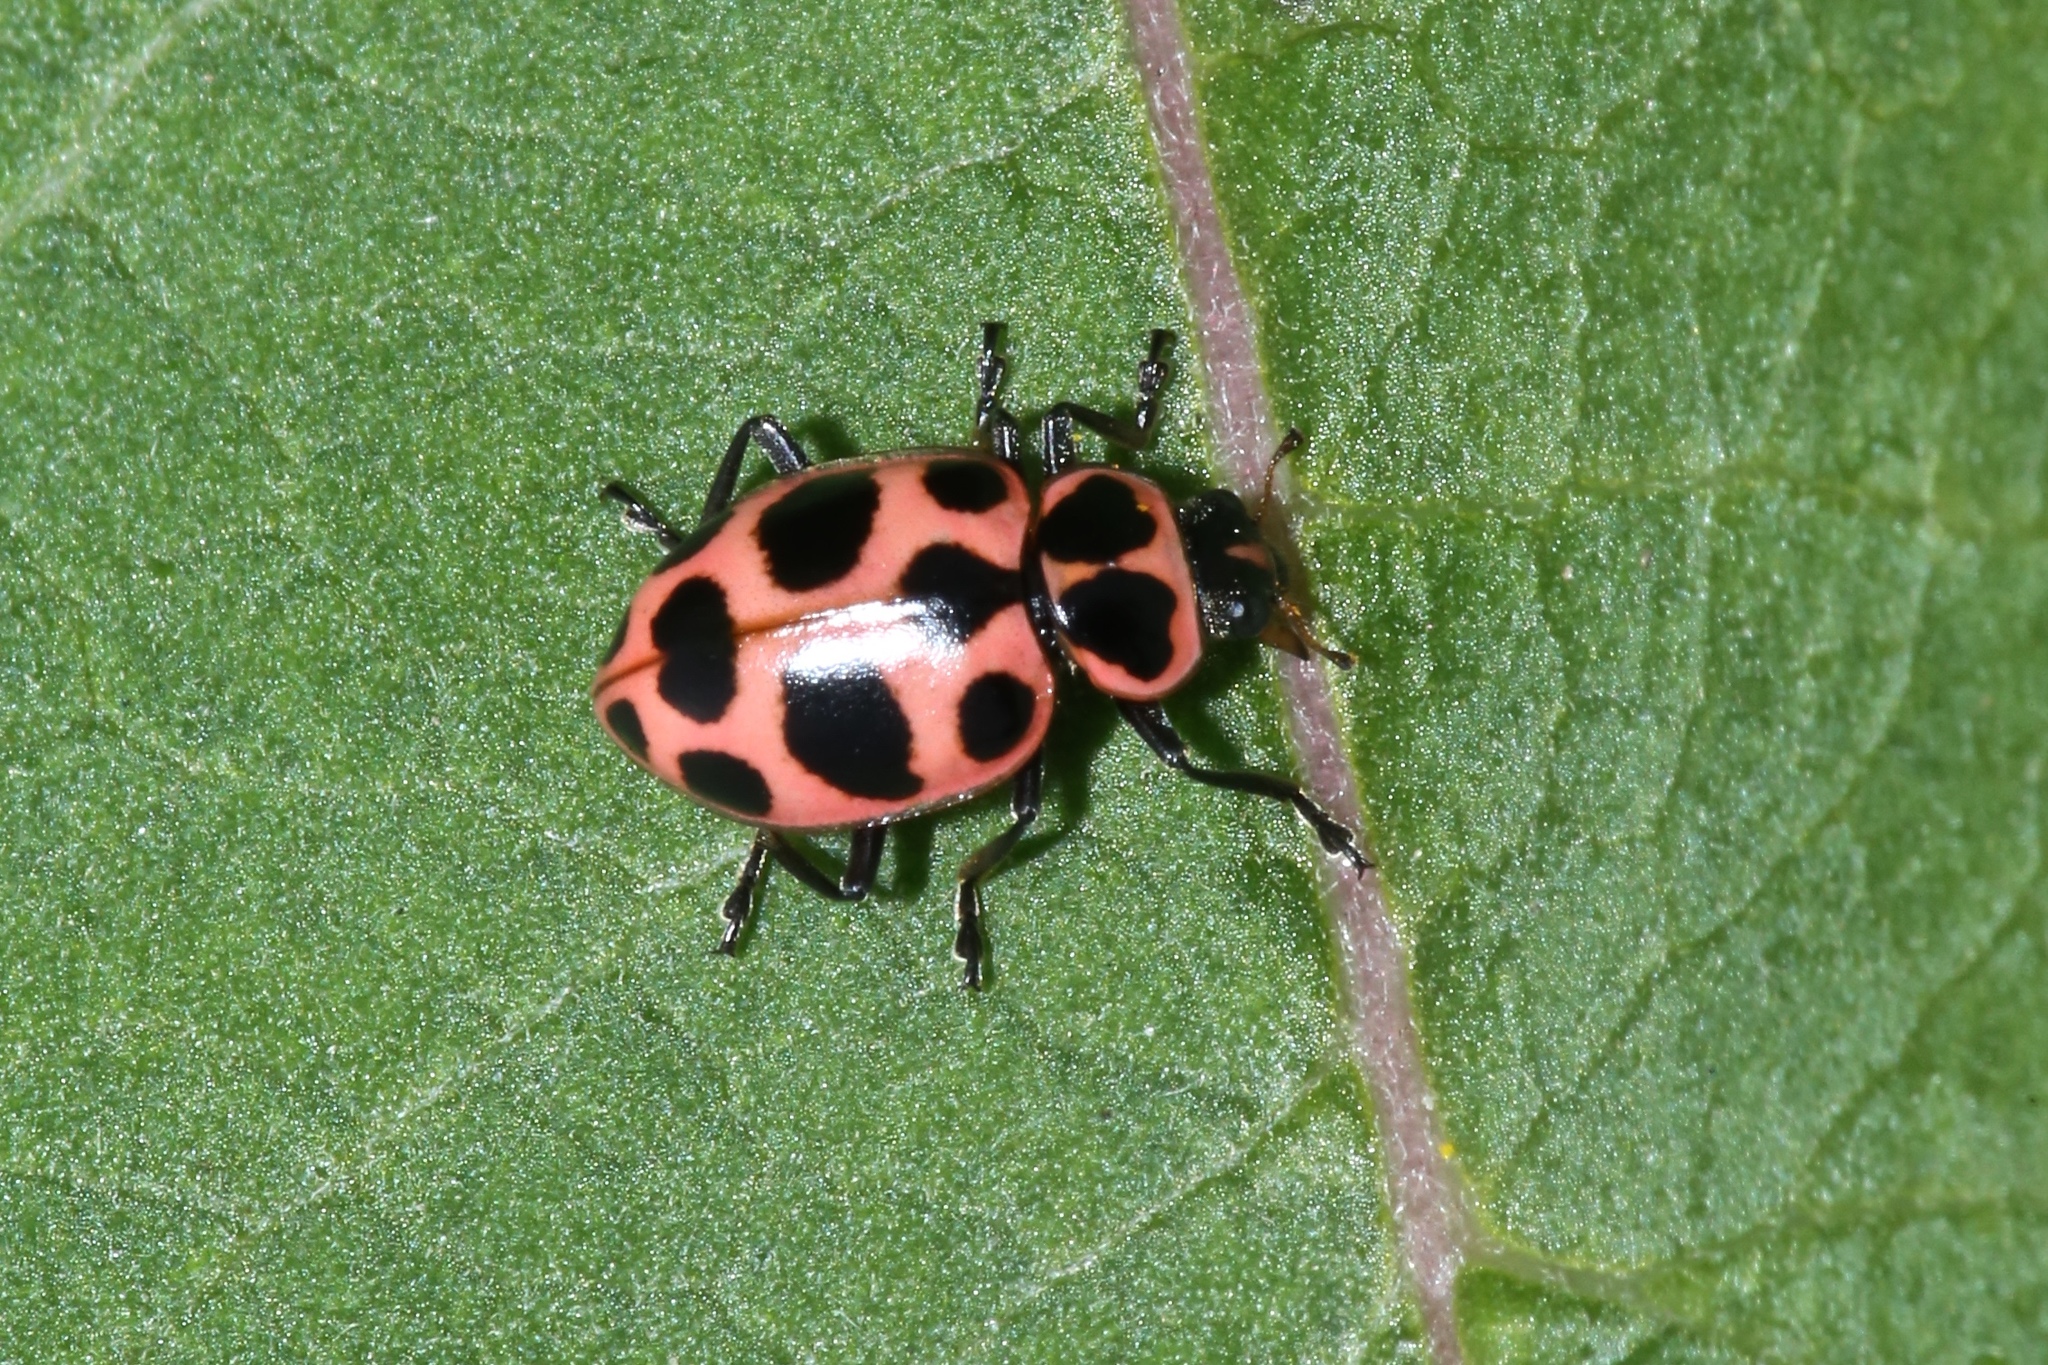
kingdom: Animalia
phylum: Arthropoda
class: Insecta
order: Coleoptera
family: Coccinellidae
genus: Coleomegilla
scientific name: Coleomegilla maculata
